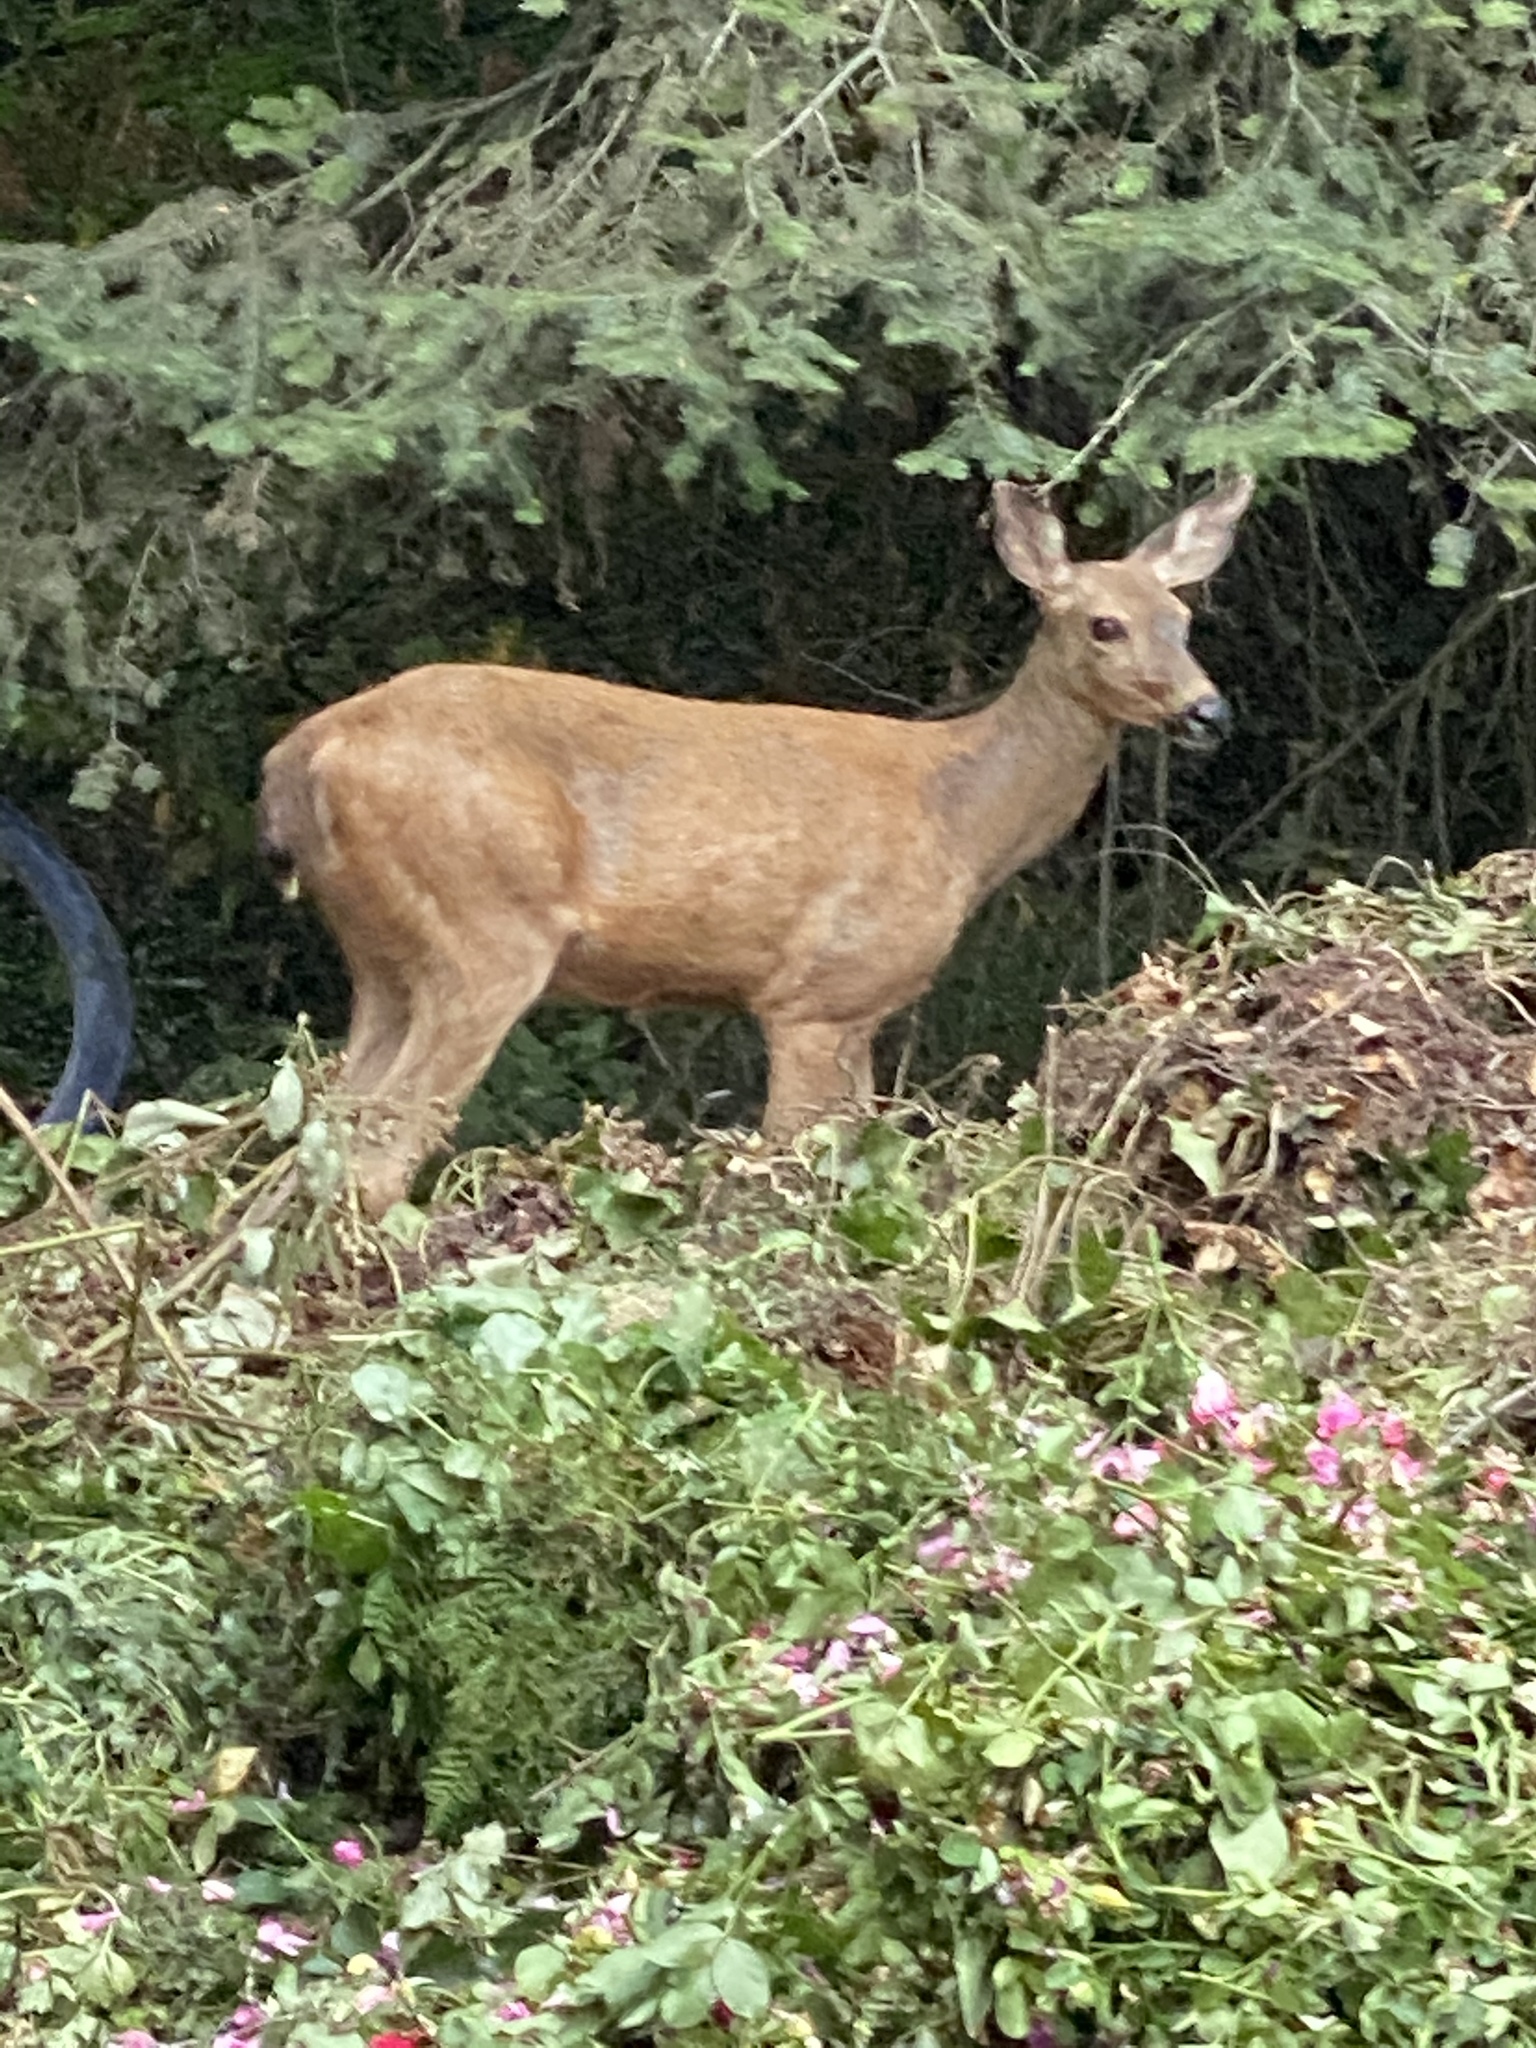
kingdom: Animalia
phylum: Chordata
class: Mammalia
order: Artiodactyla
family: Cervidae
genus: Odocoileus
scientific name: Odocoileus hemionus
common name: Mule deer
